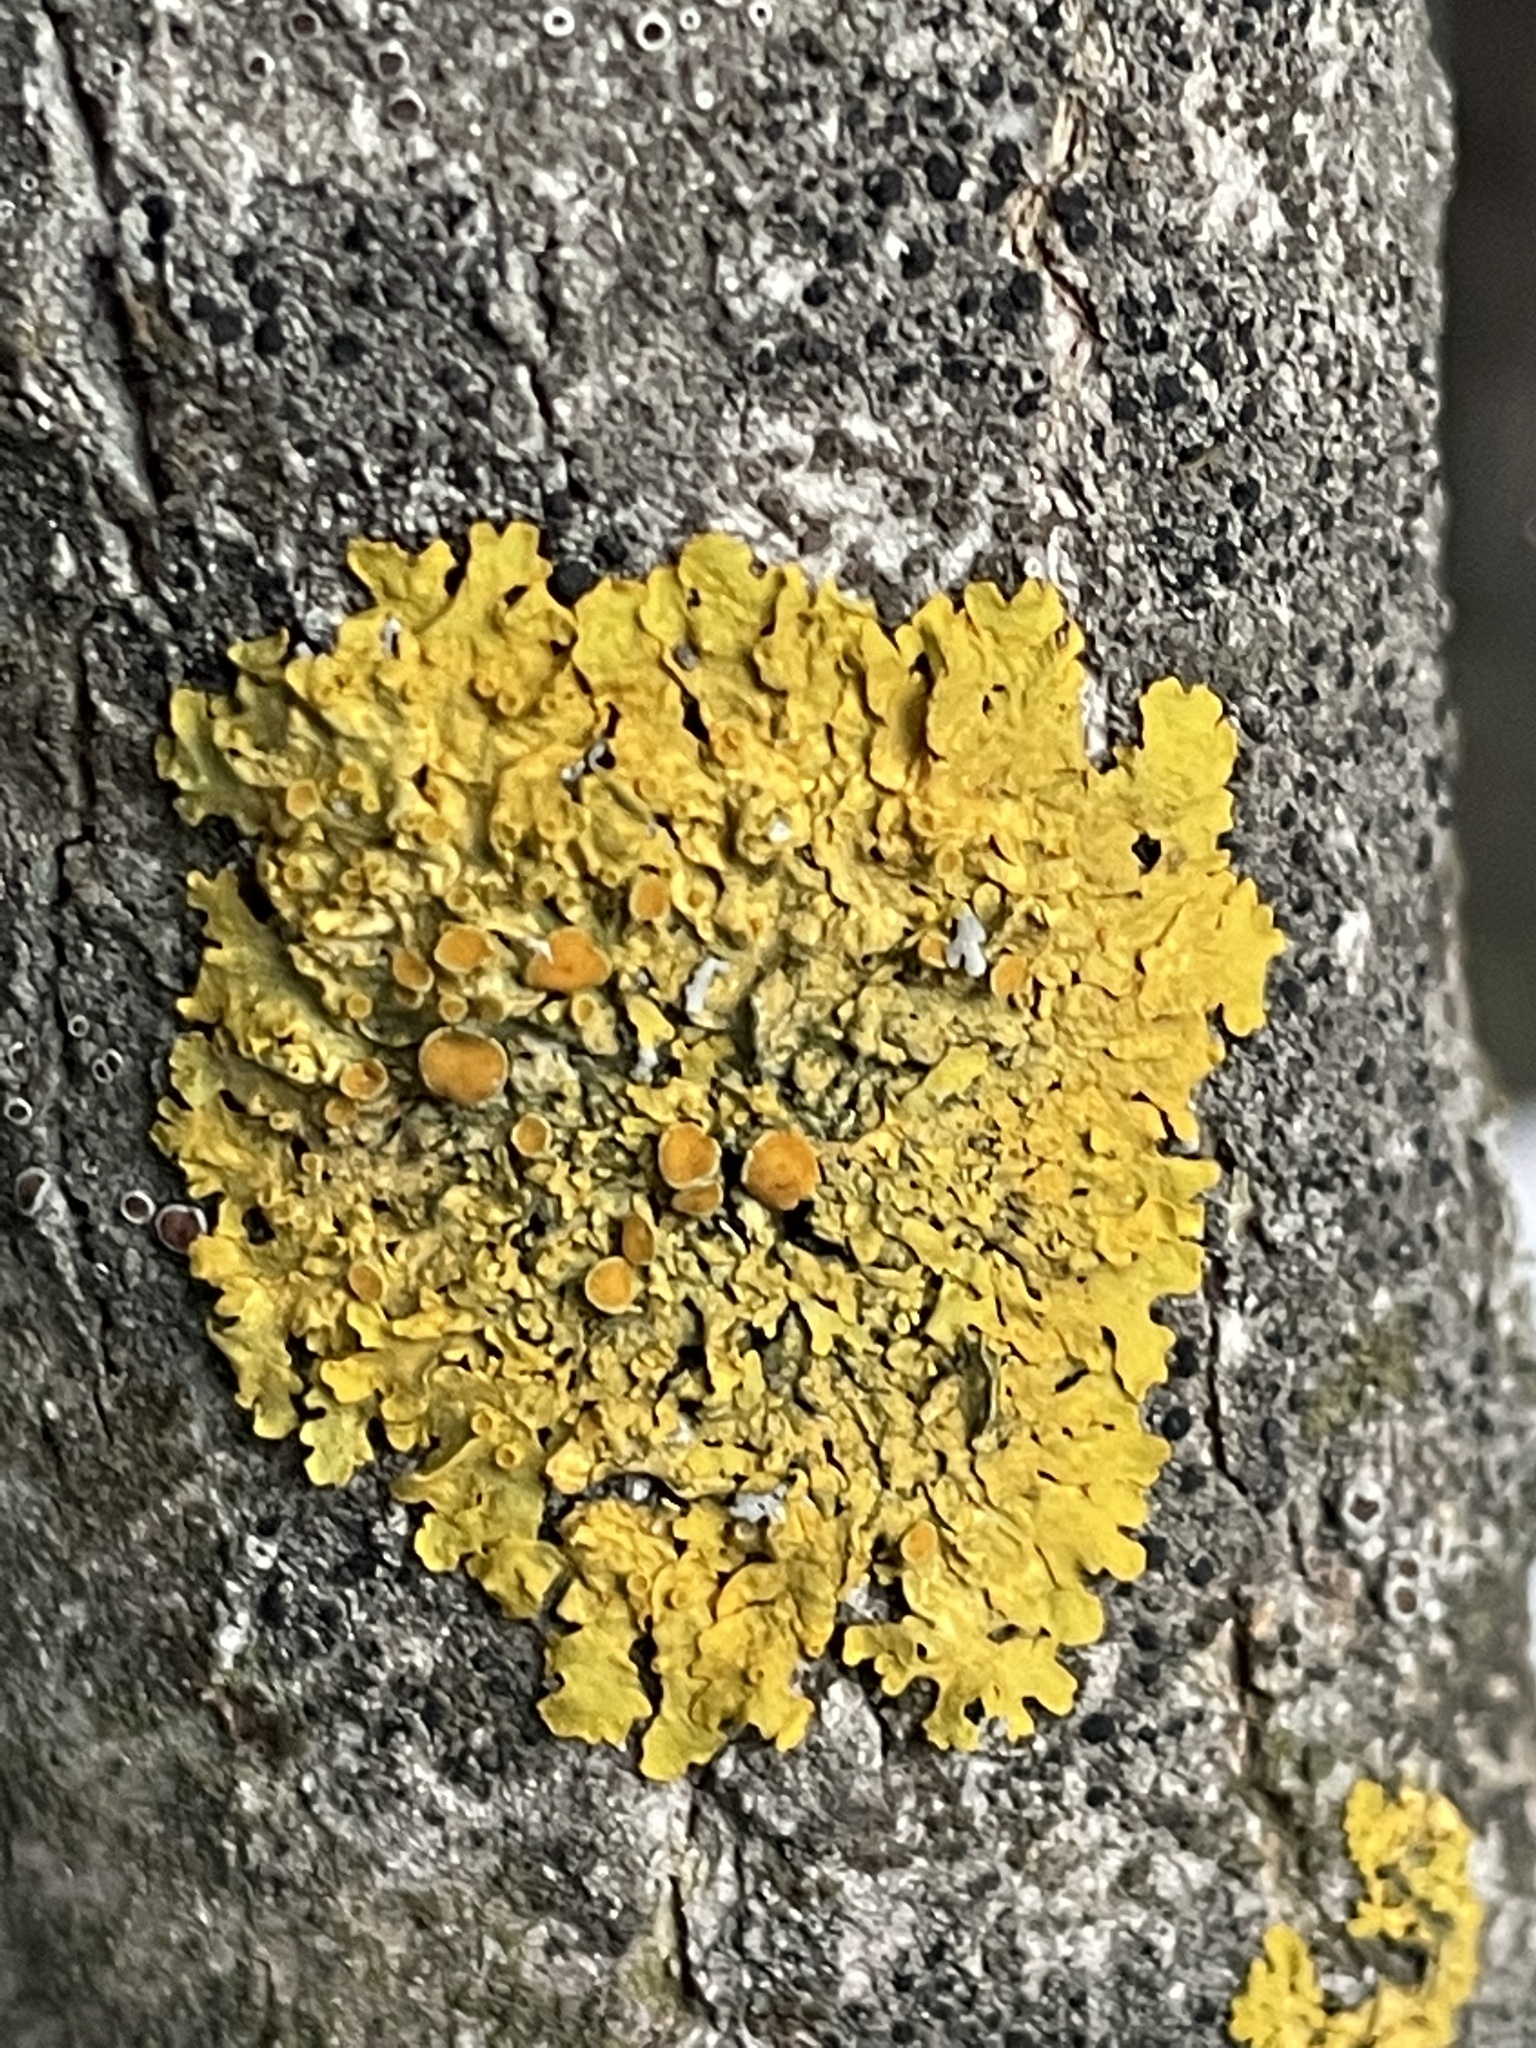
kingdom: Fungi
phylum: Ascomycota
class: Lecanoromycetes
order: Teloschistales
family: Teloschistaceae
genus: Xanthoria
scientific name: Xanthoria parietina
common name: Common orange lichen
